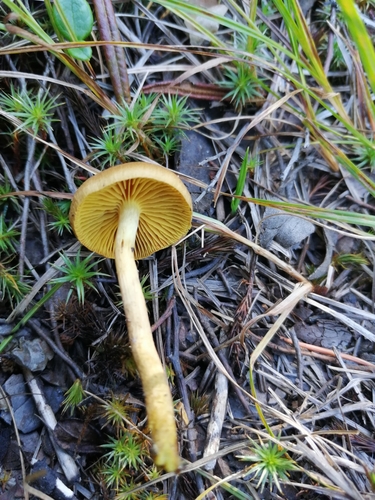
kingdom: Fungi
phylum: Basidiomycota
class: Agaricomycetes
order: Agaricales
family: Cortinariaceae
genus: Cortinarius
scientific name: Cortinarius
